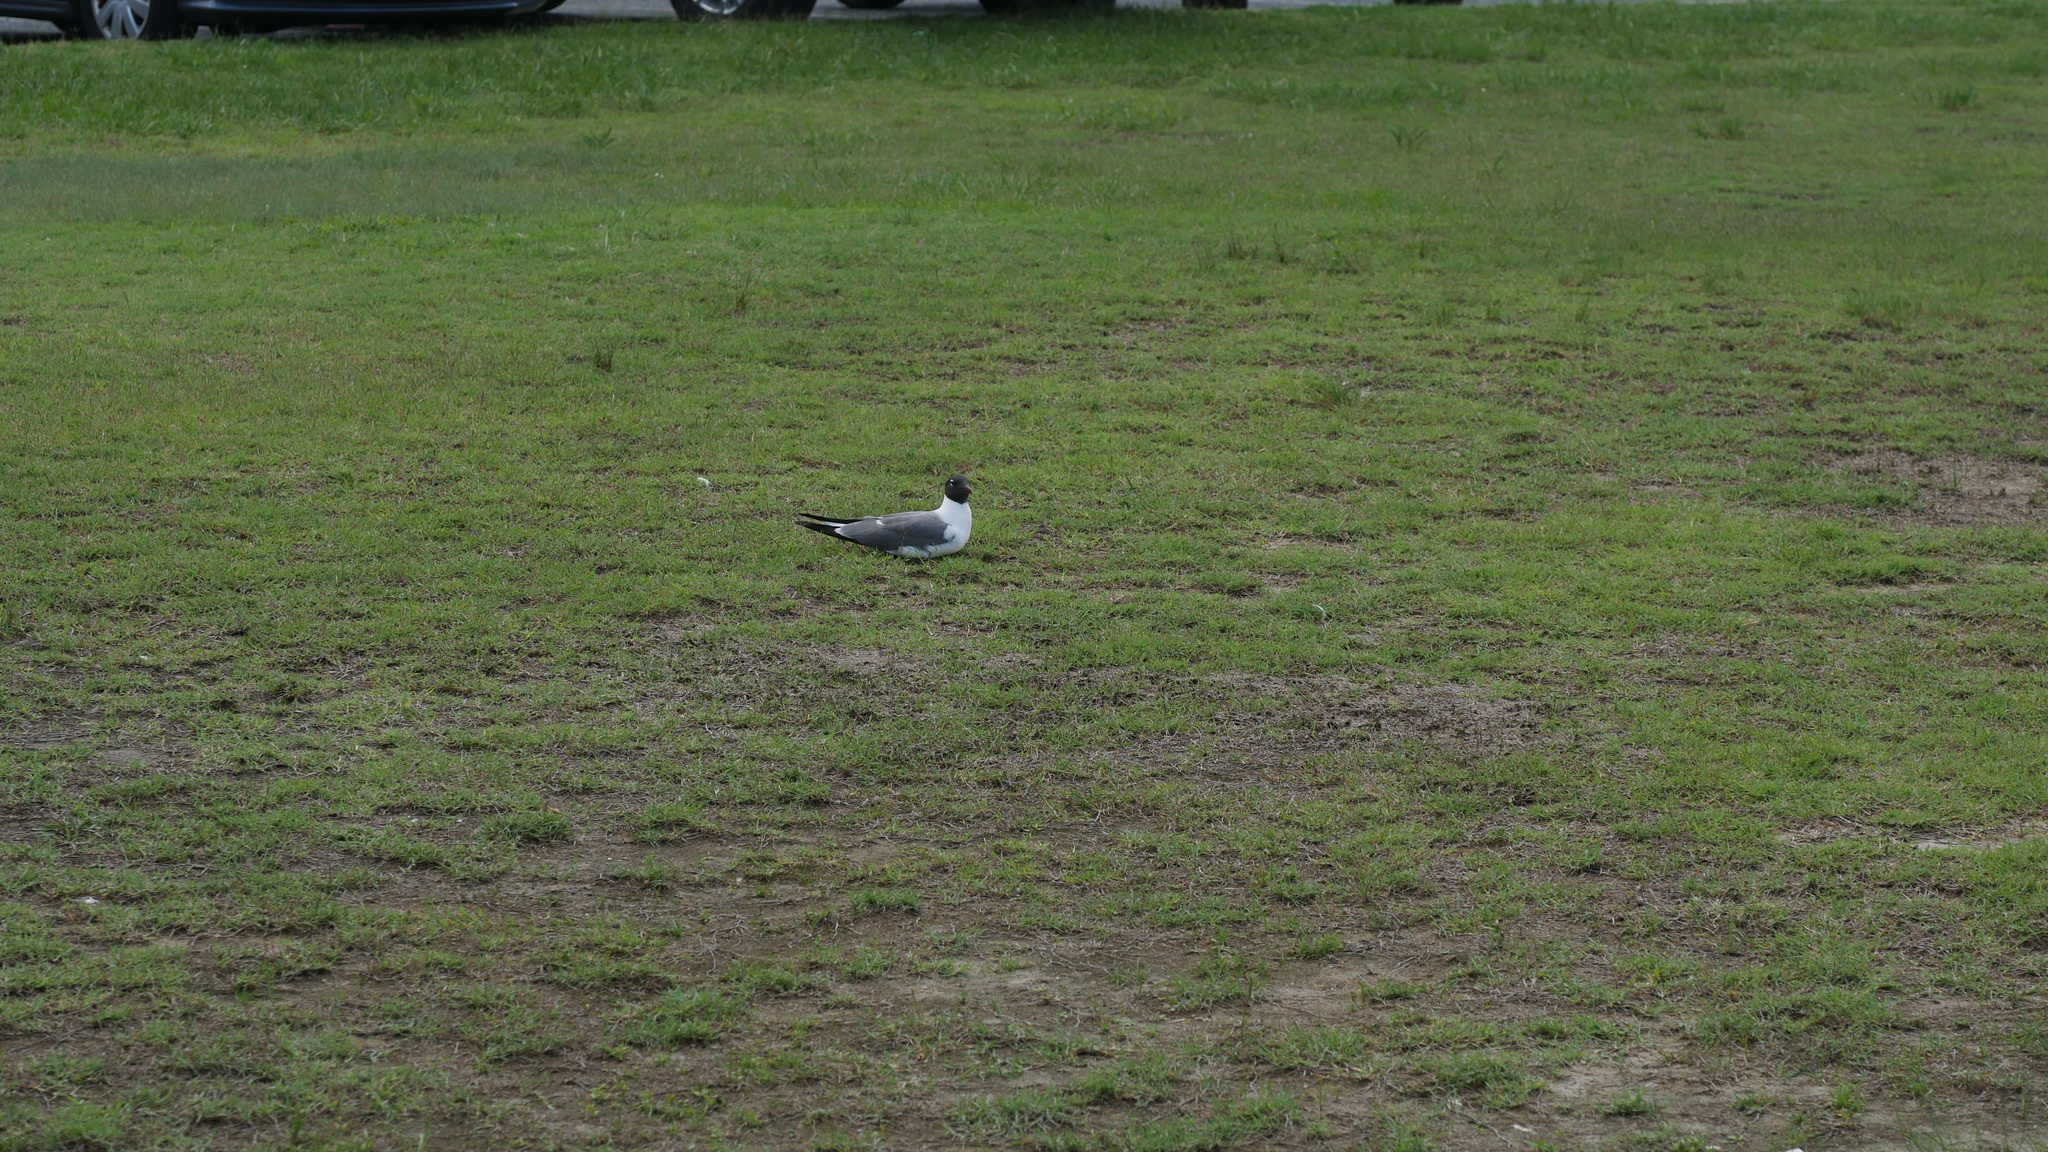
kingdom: Animalia
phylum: Chordata
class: Aves
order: Charadriiformes
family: Laridae
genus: Leucophaeus
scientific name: Leucophaeus atricilla
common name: Laughing gull
